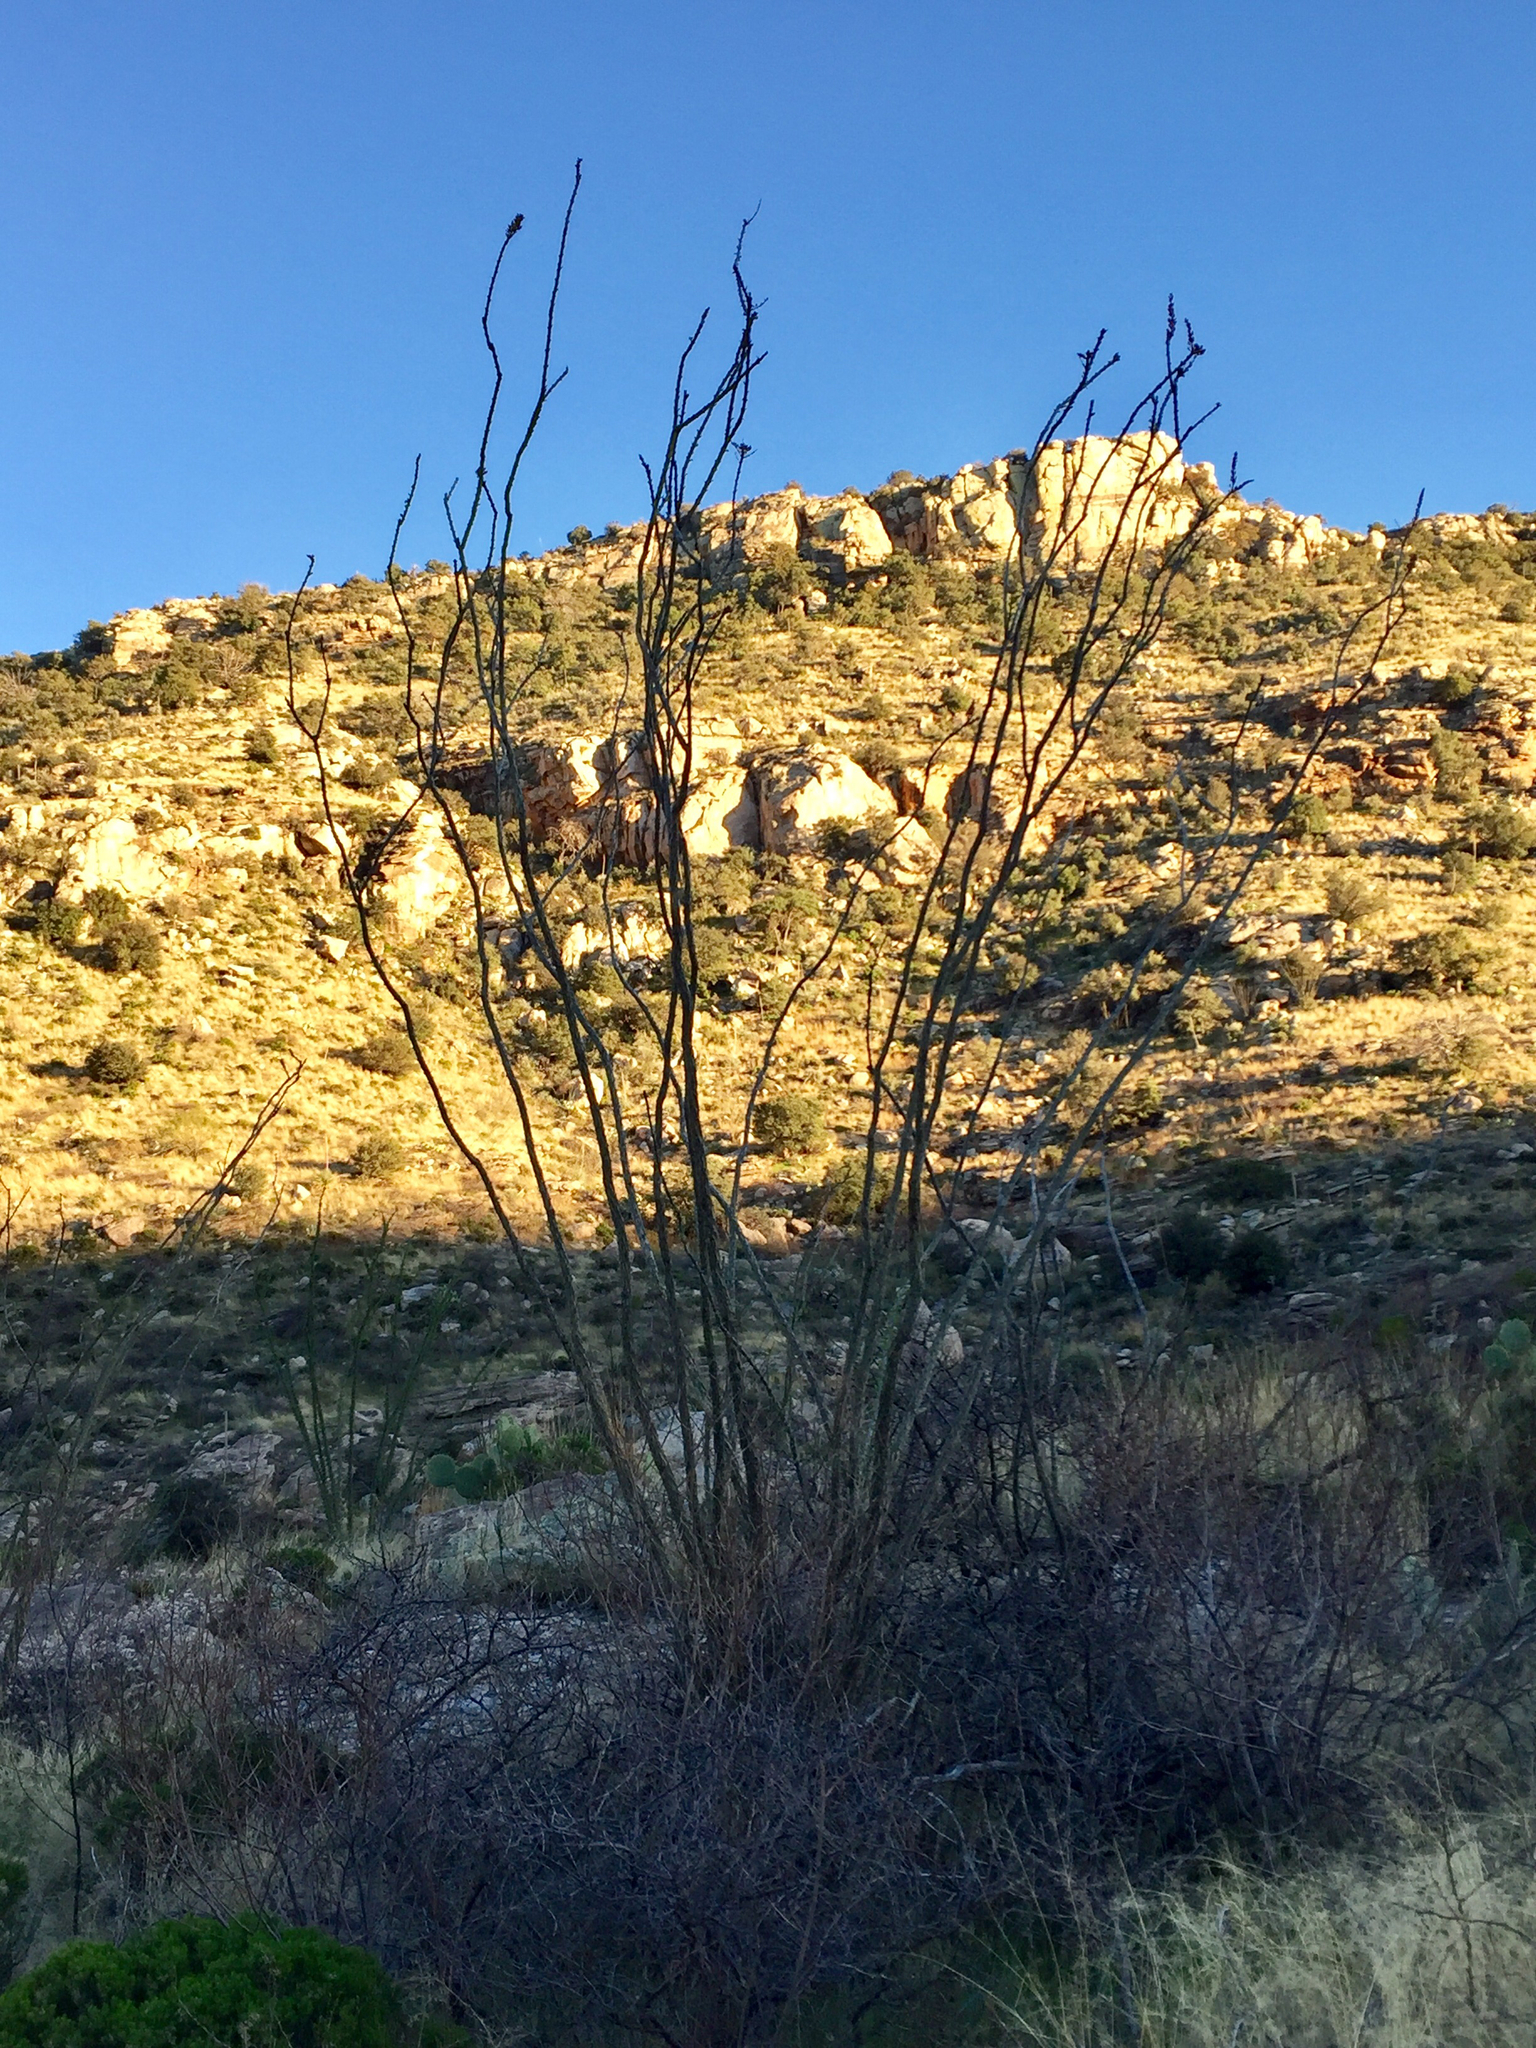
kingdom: Plantae
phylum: Tracheophyta
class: Magnoliopsida
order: Ericales
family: Fouquieriaceae
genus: Fouquieria
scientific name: Fouquieria splendens
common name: Vine-cactus
